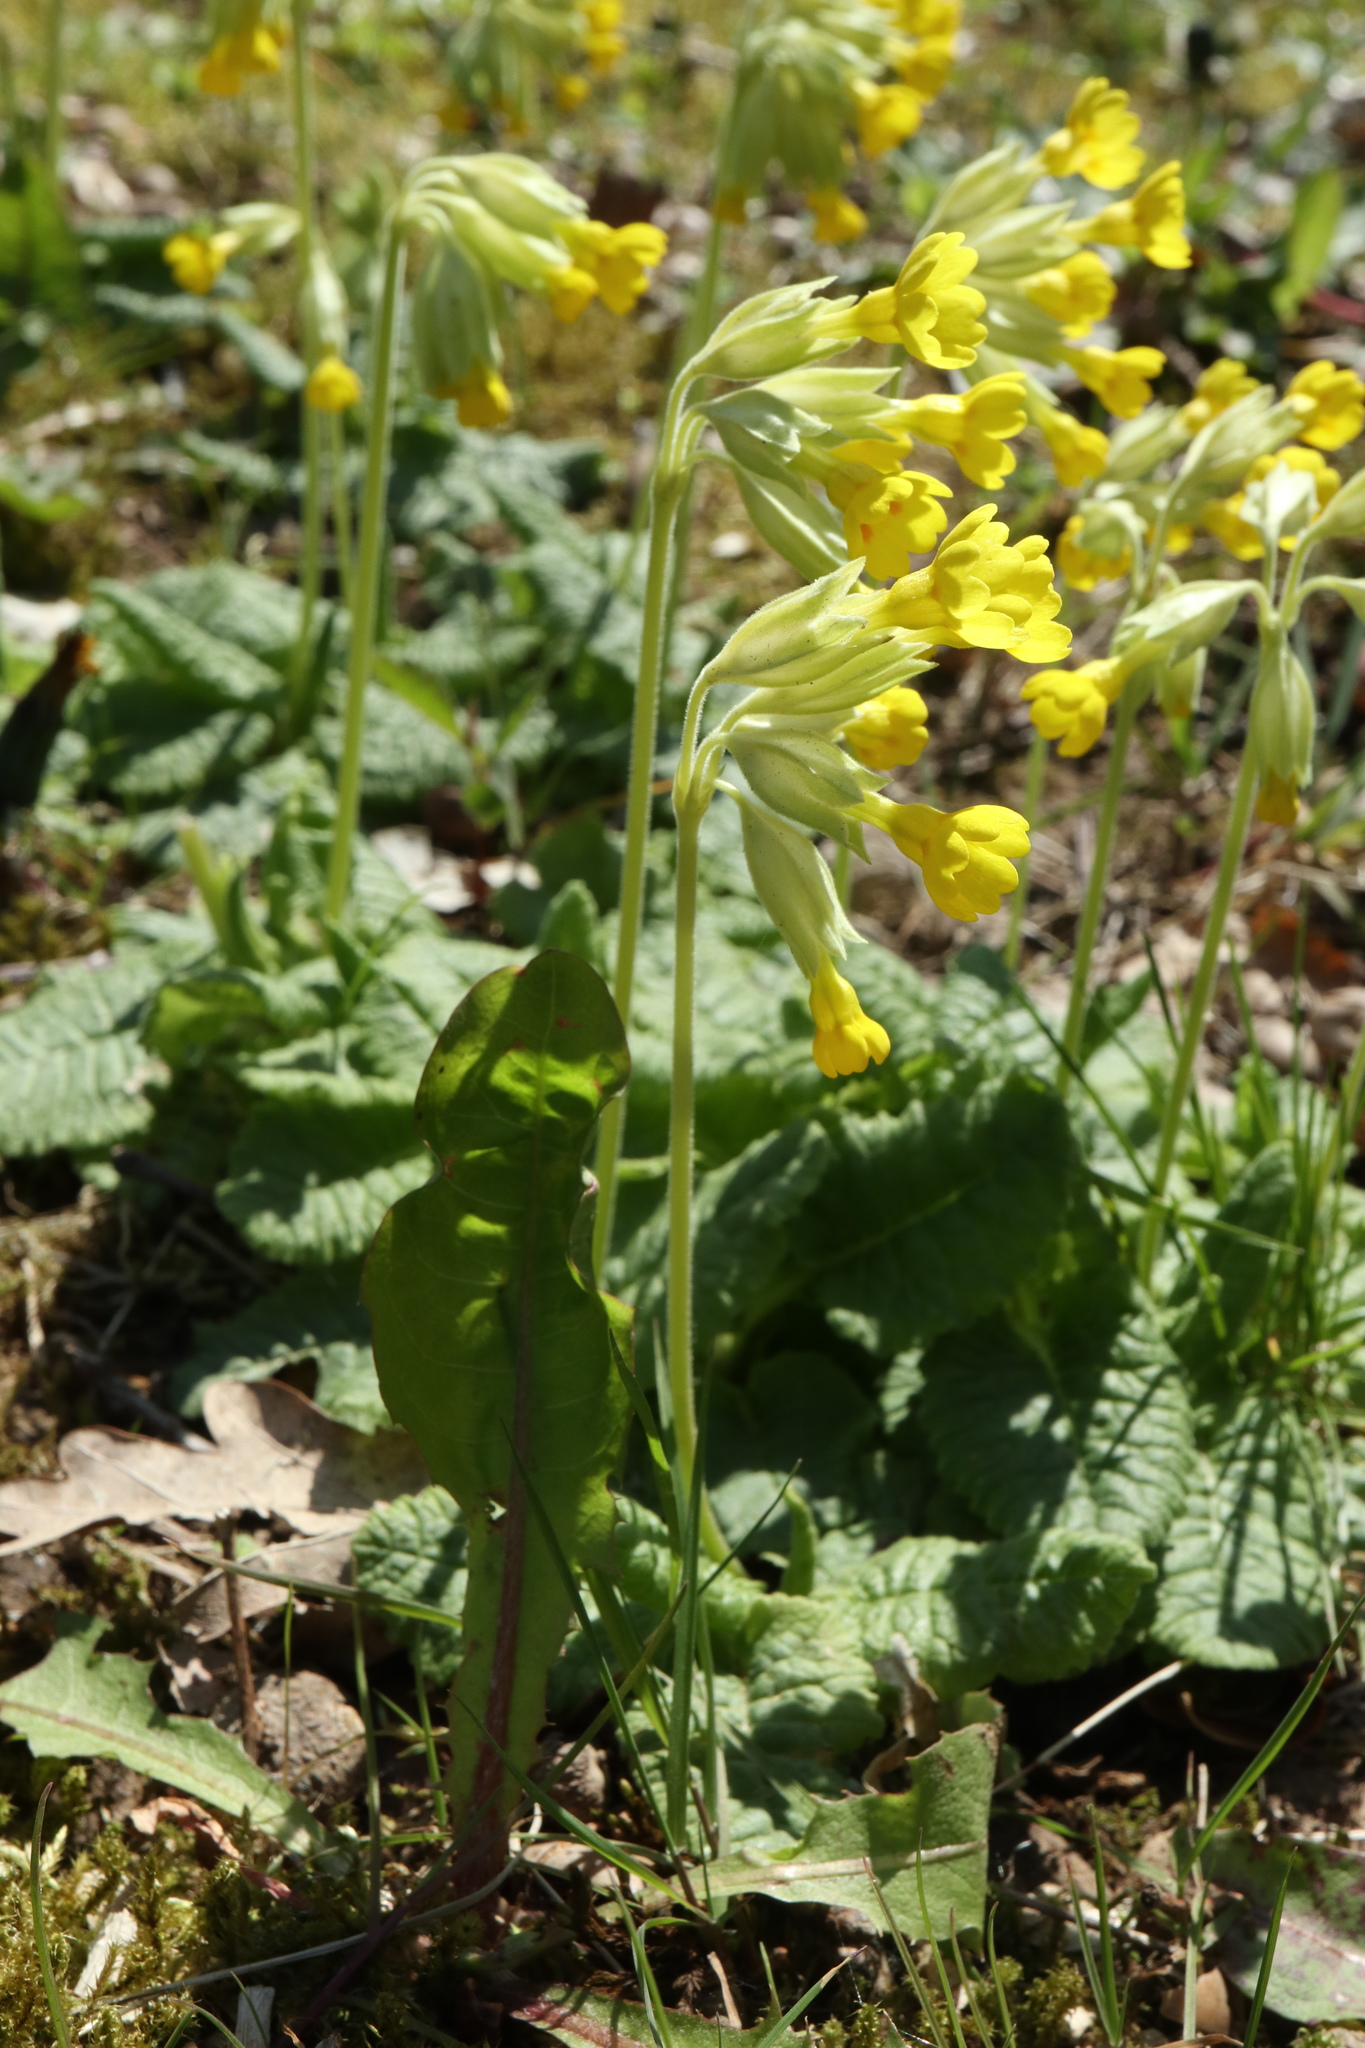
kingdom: Plantae
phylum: Tracheophyta
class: Magnoliopsida
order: Ericales
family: Primulaceae
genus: Primula
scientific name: Primula veris
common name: Cowslip
